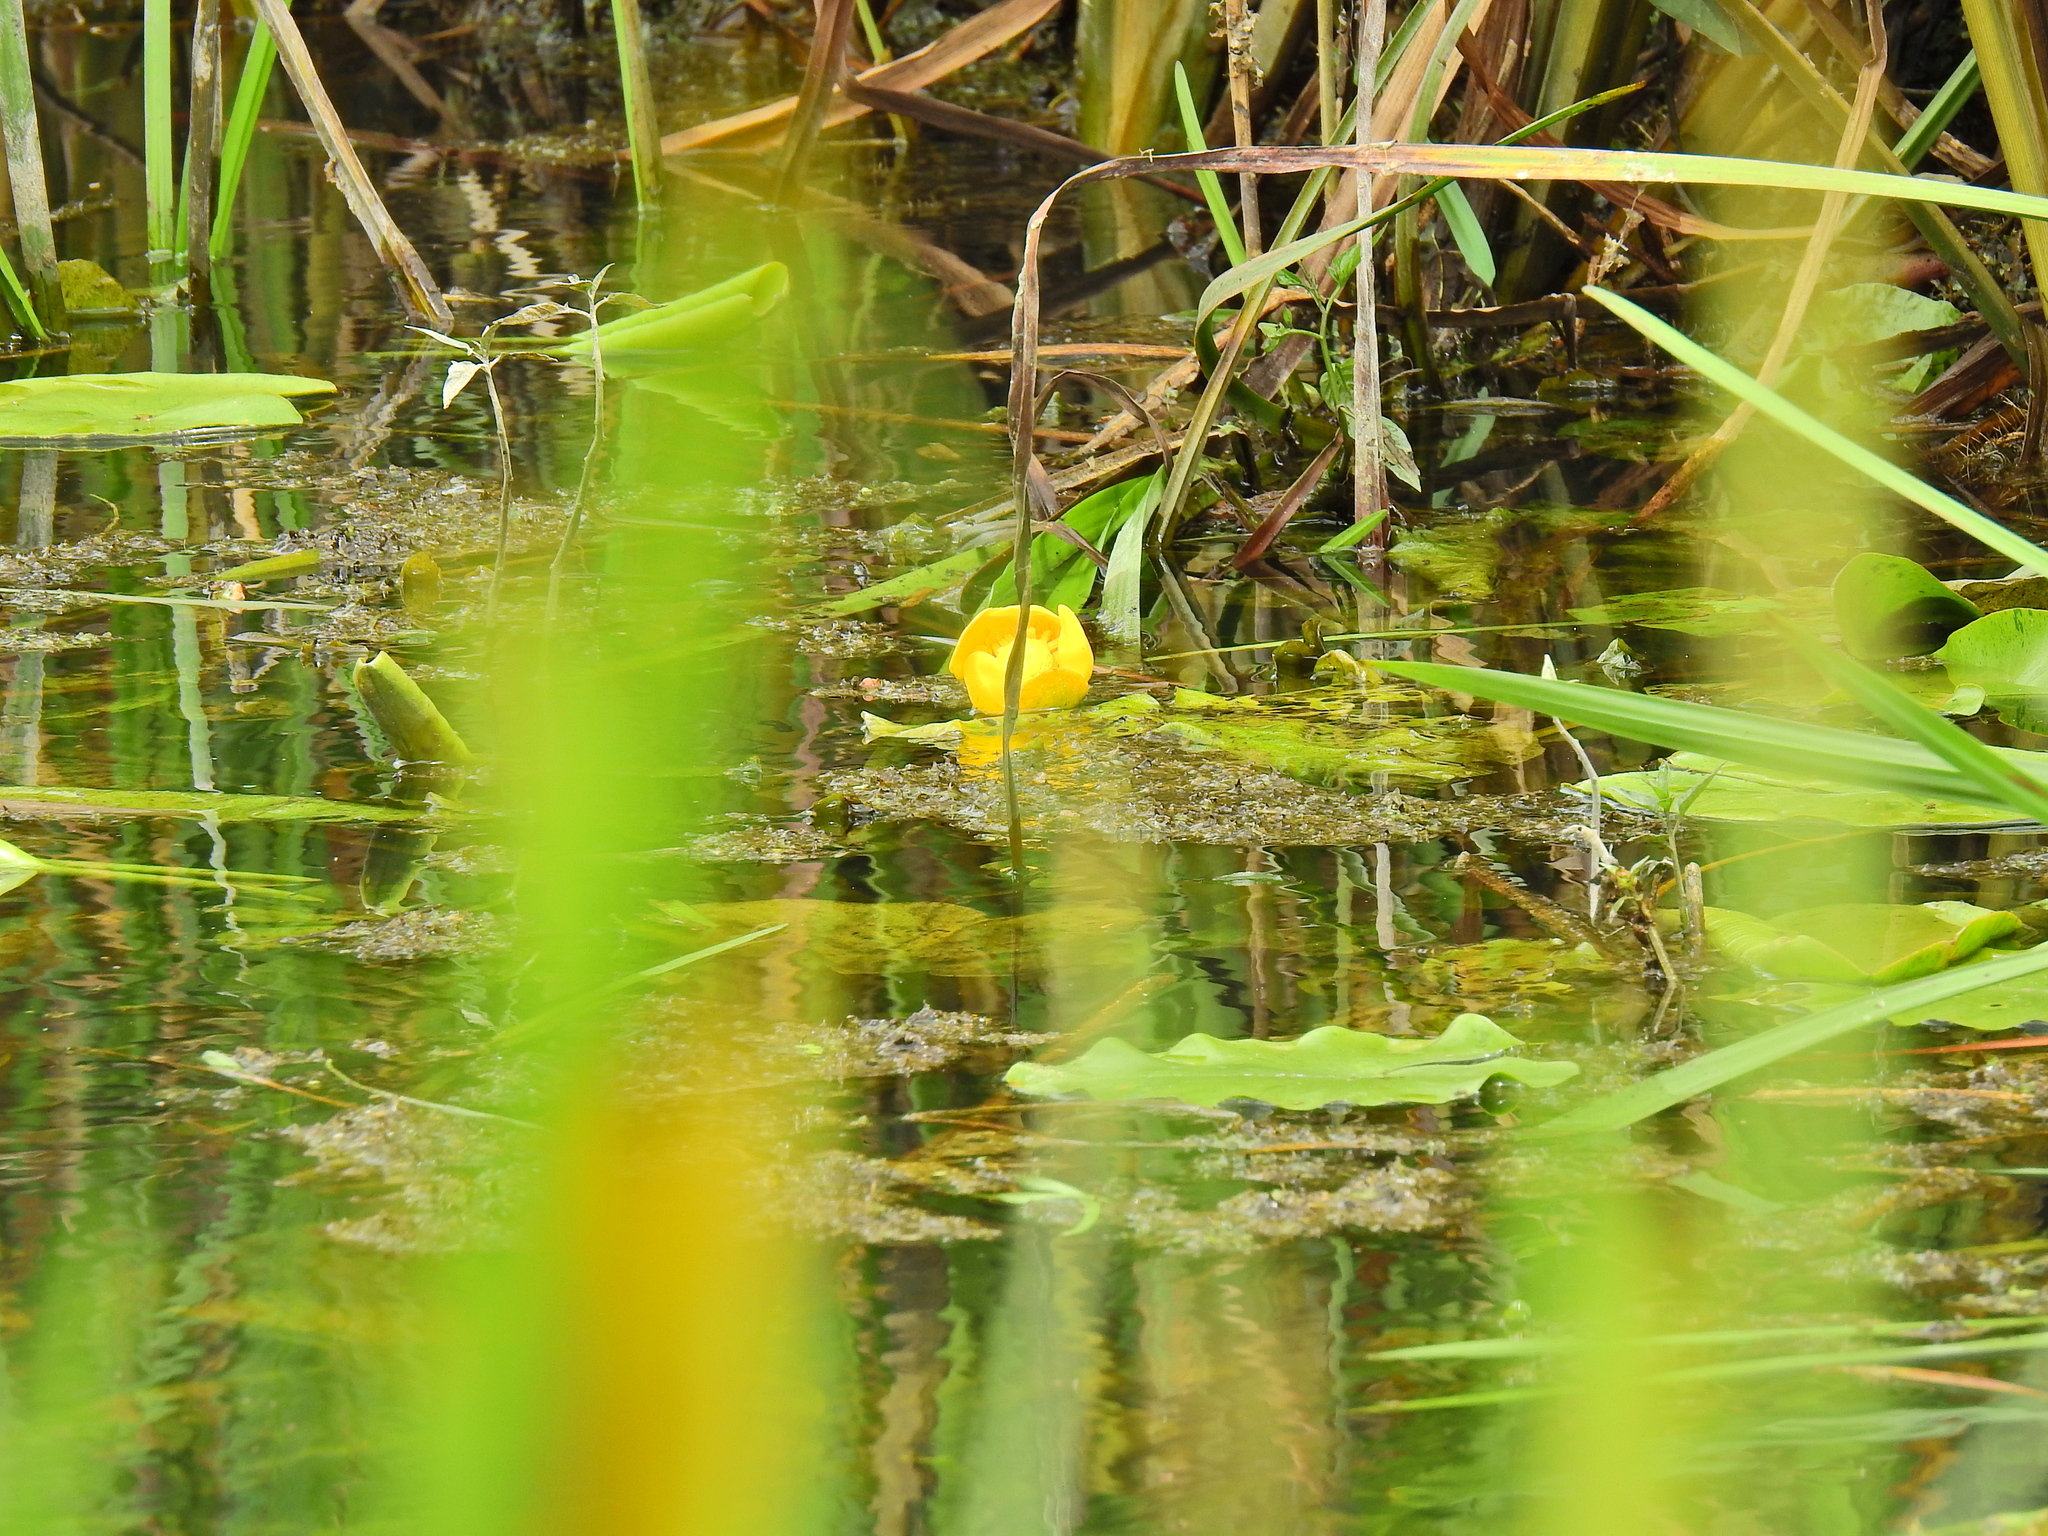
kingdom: Plantae
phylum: Tracheophyta
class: Magnoliopsida
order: Nymphaeales
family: Nymphaeaceae
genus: Nuphar
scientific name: Nuphar lutea
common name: Yellow water-lily
